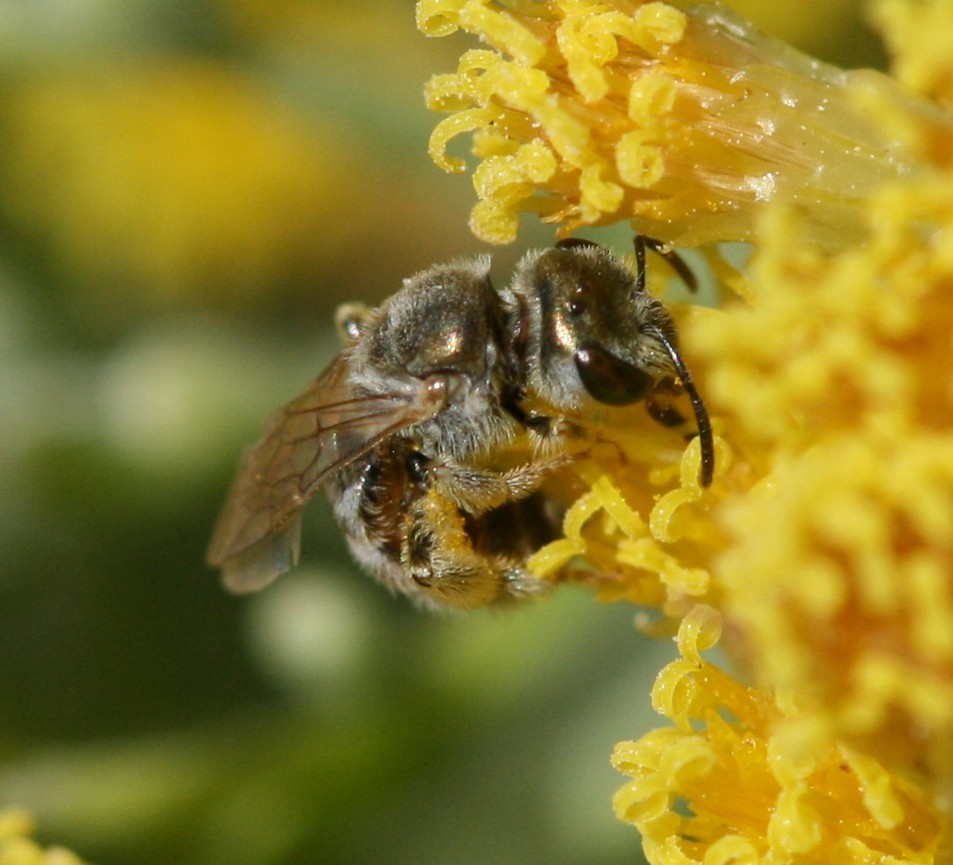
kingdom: Animalia
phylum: Arthropoda
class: Insecta
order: Hymenoptera
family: Halictidae
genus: Halictus
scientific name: Halictus concinnus
